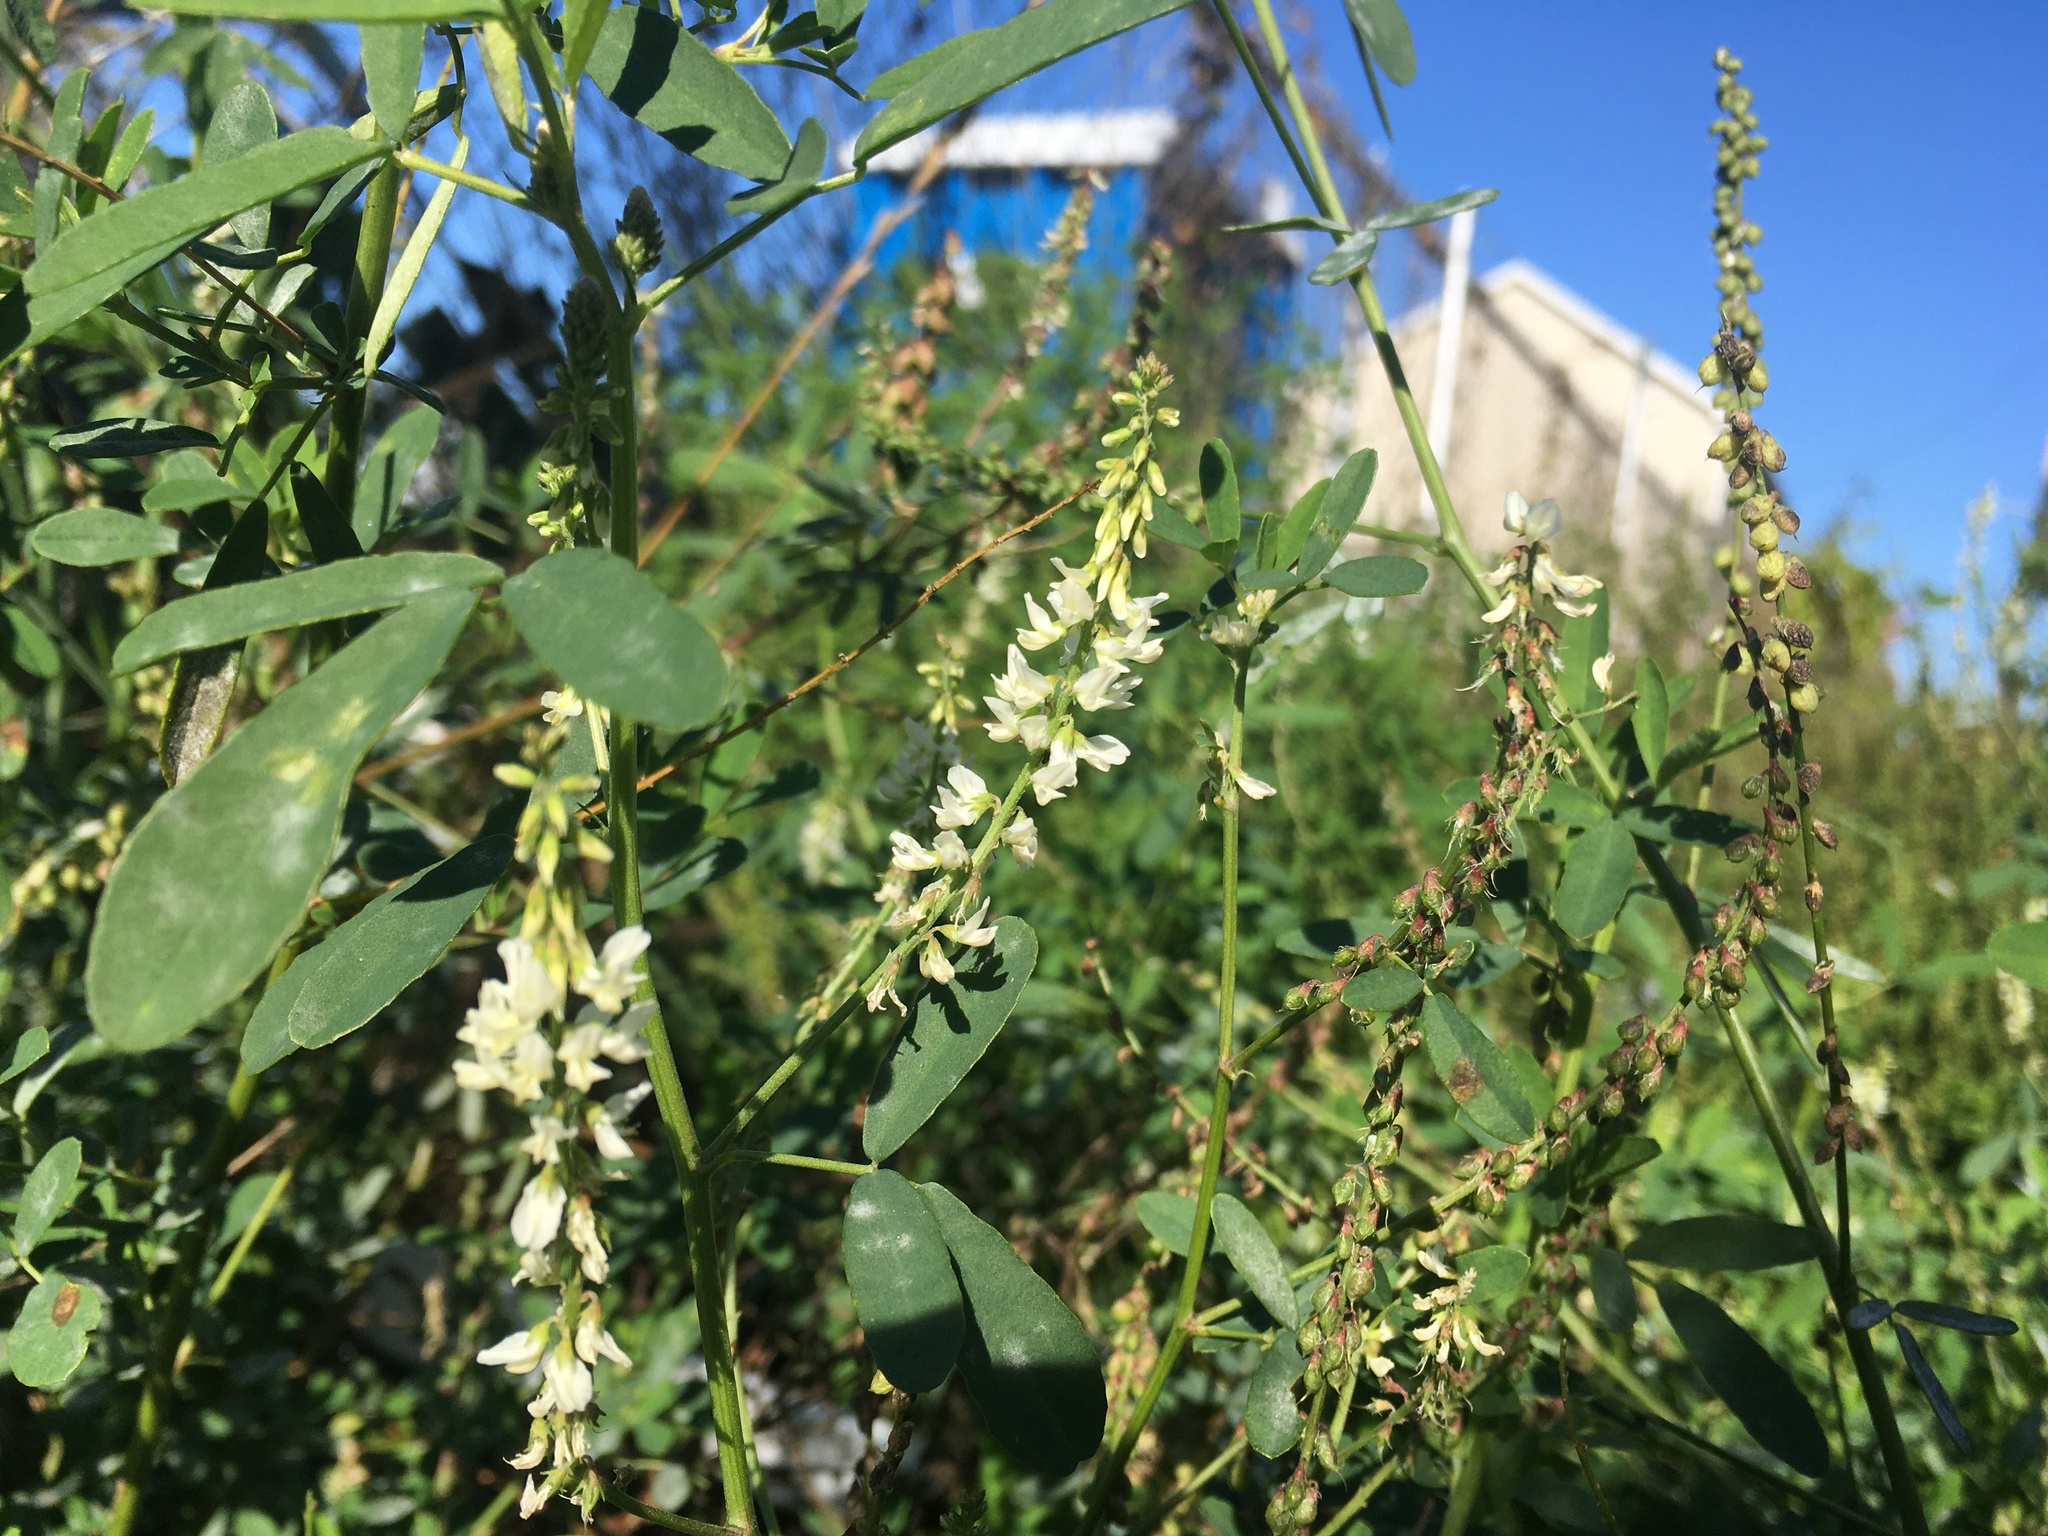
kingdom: Plantae
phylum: Tracheophyta
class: Magnoliopsida
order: Fabales
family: Fabaceae
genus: Melilotus
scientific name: Melilotus albus
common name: White melilot
